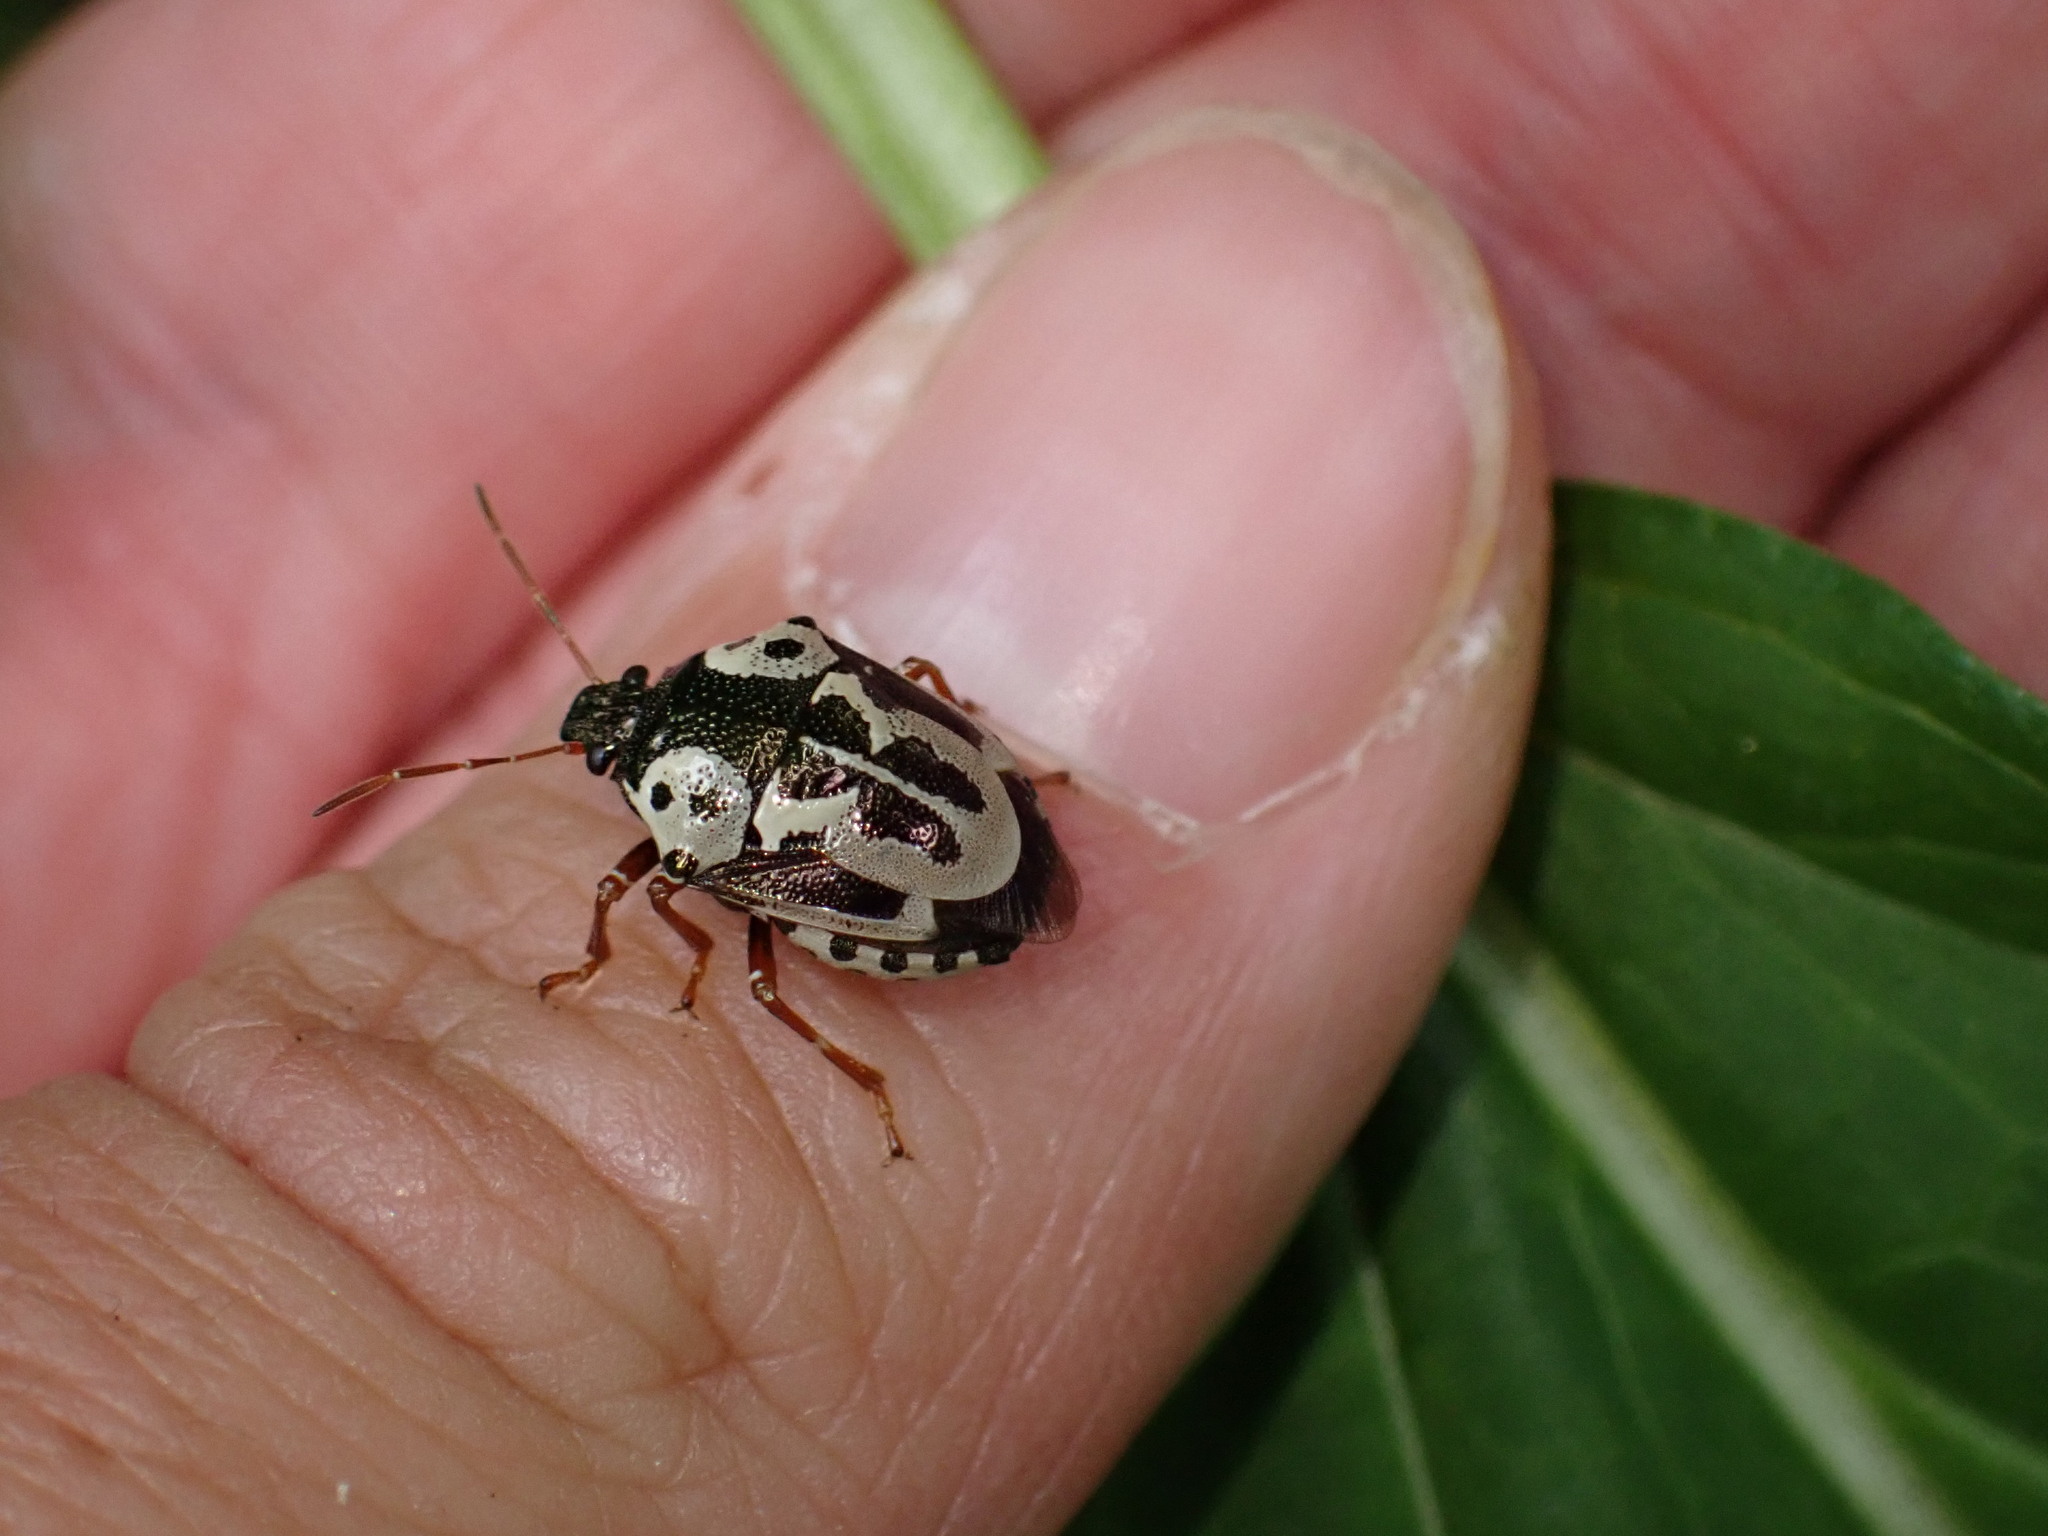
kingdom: Animalia
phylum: Arthropoda
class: Insecta
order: Hemiptera
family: Pentatomidae
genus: Stiretrus
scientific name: Stiretrus anchorago
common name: Anchor stink bug
